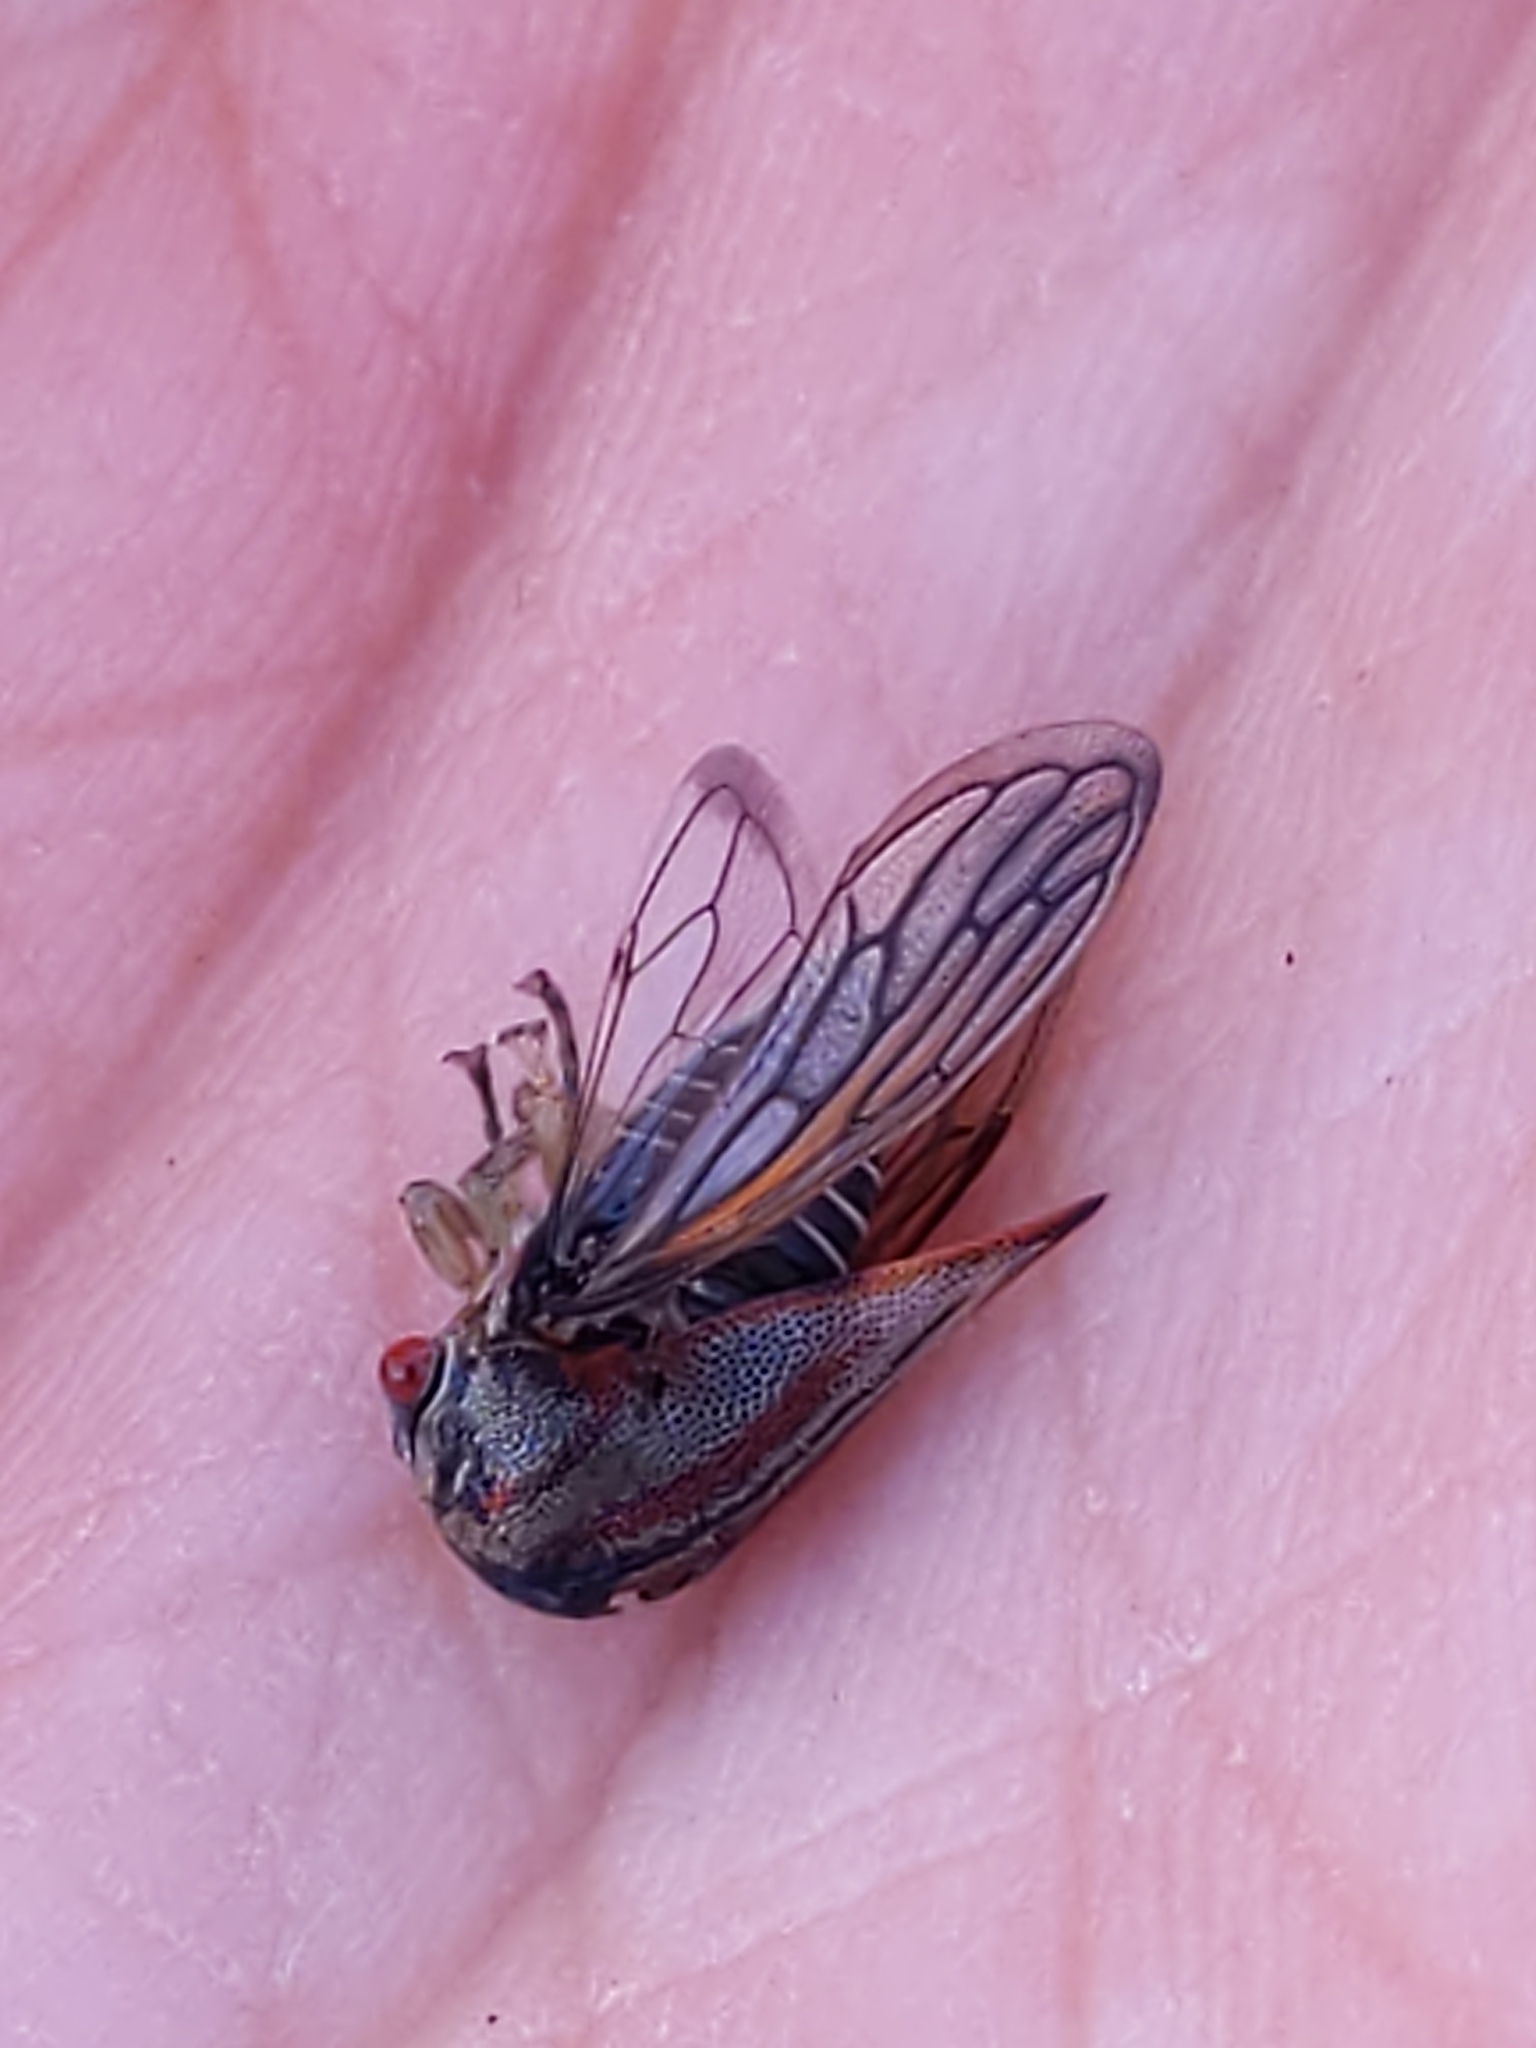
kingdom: Animalia
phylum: Arthropoda
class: Insecta
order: Hemiptera
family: Membracidae
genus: Platycotis
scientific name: Platycotis vittatus
